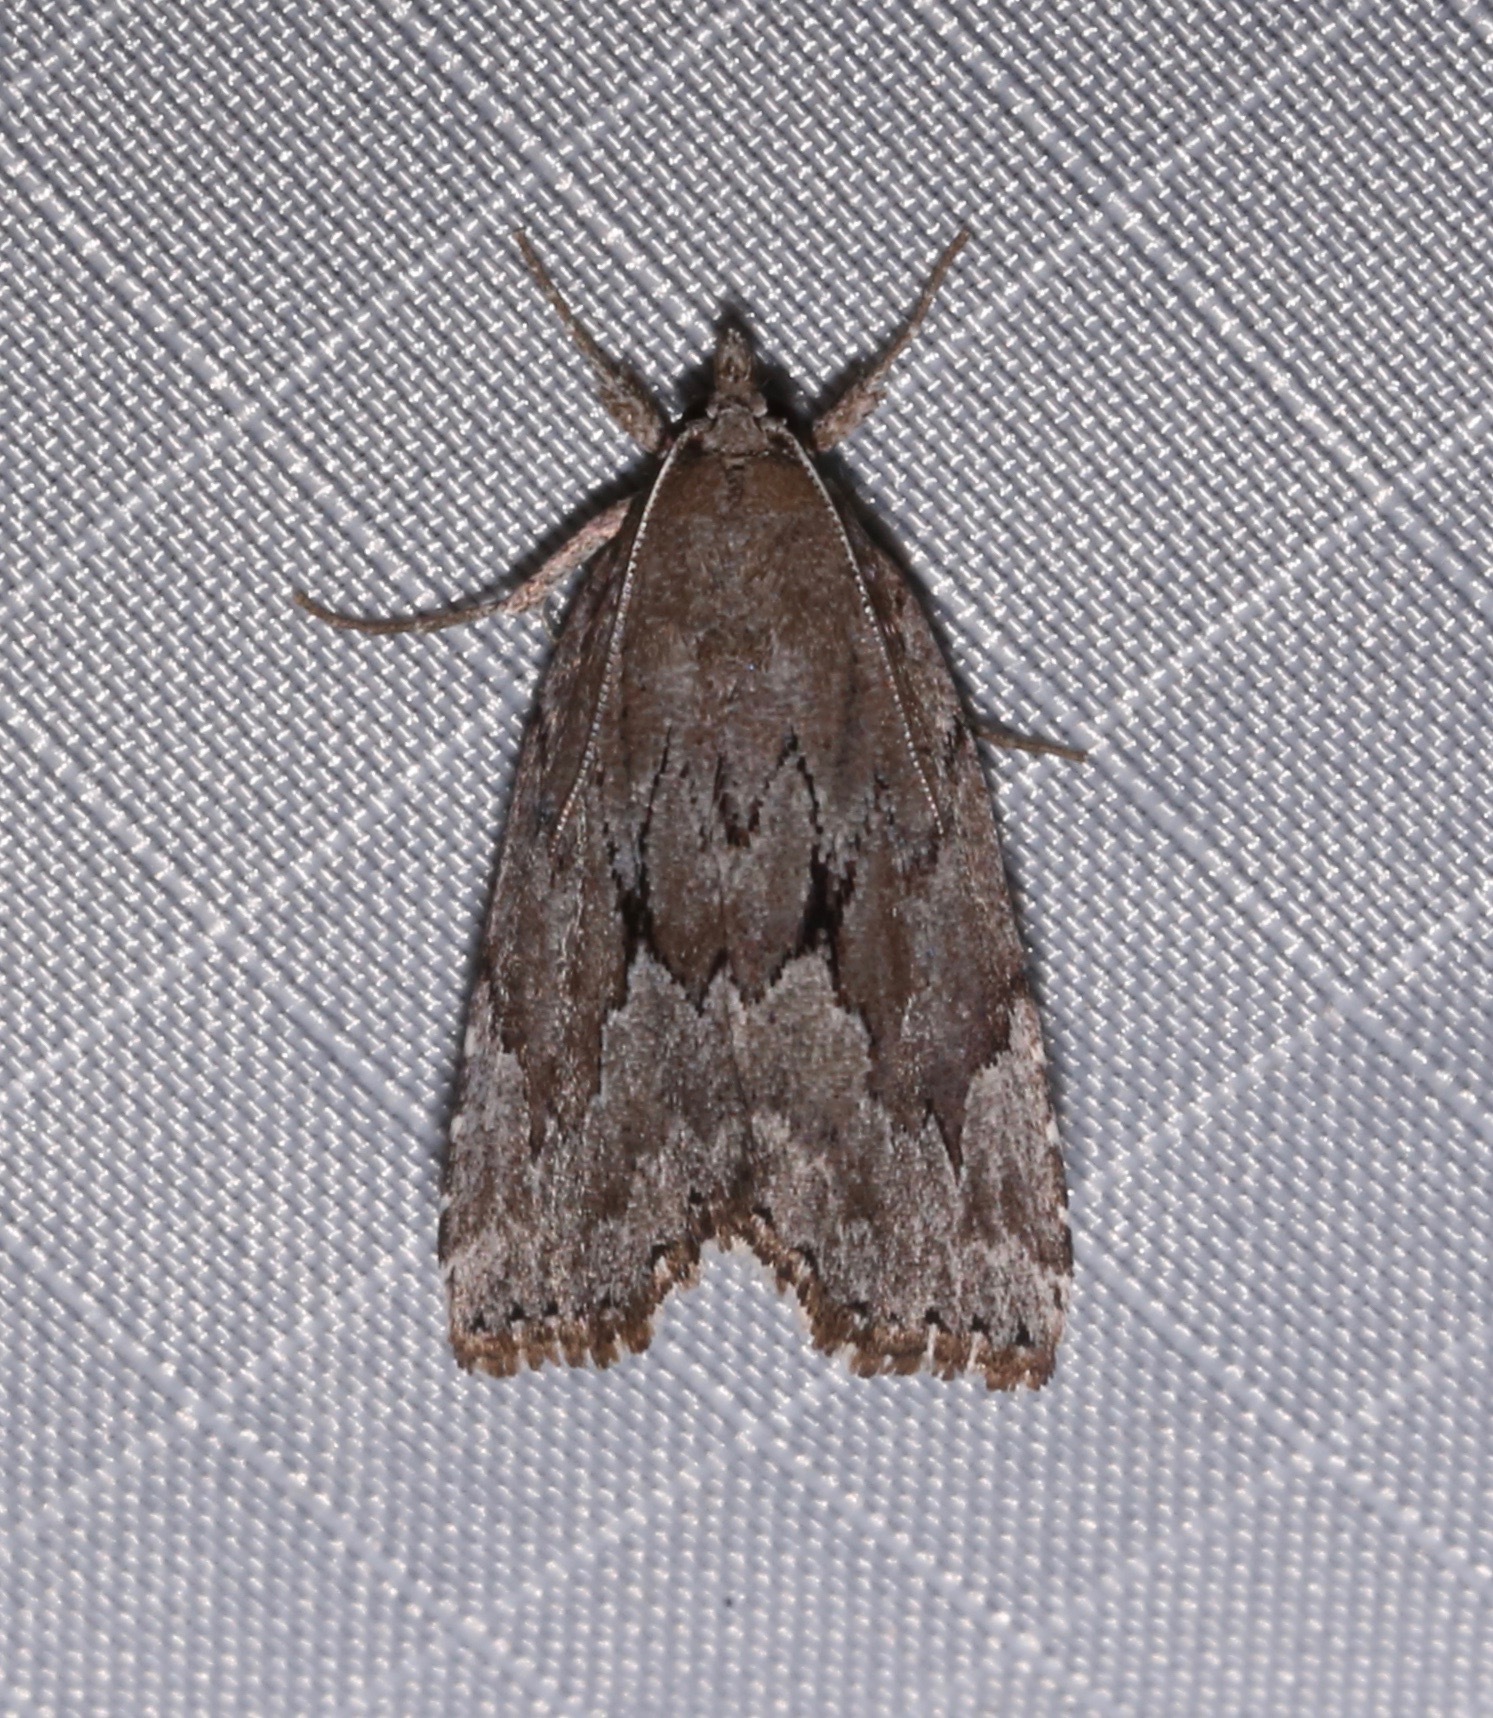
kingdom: Animalia
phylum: Arthropoda
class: Insecta
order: Lepidoptera
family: Erebidae
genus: Cutina
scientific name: Cutina albopunctella
